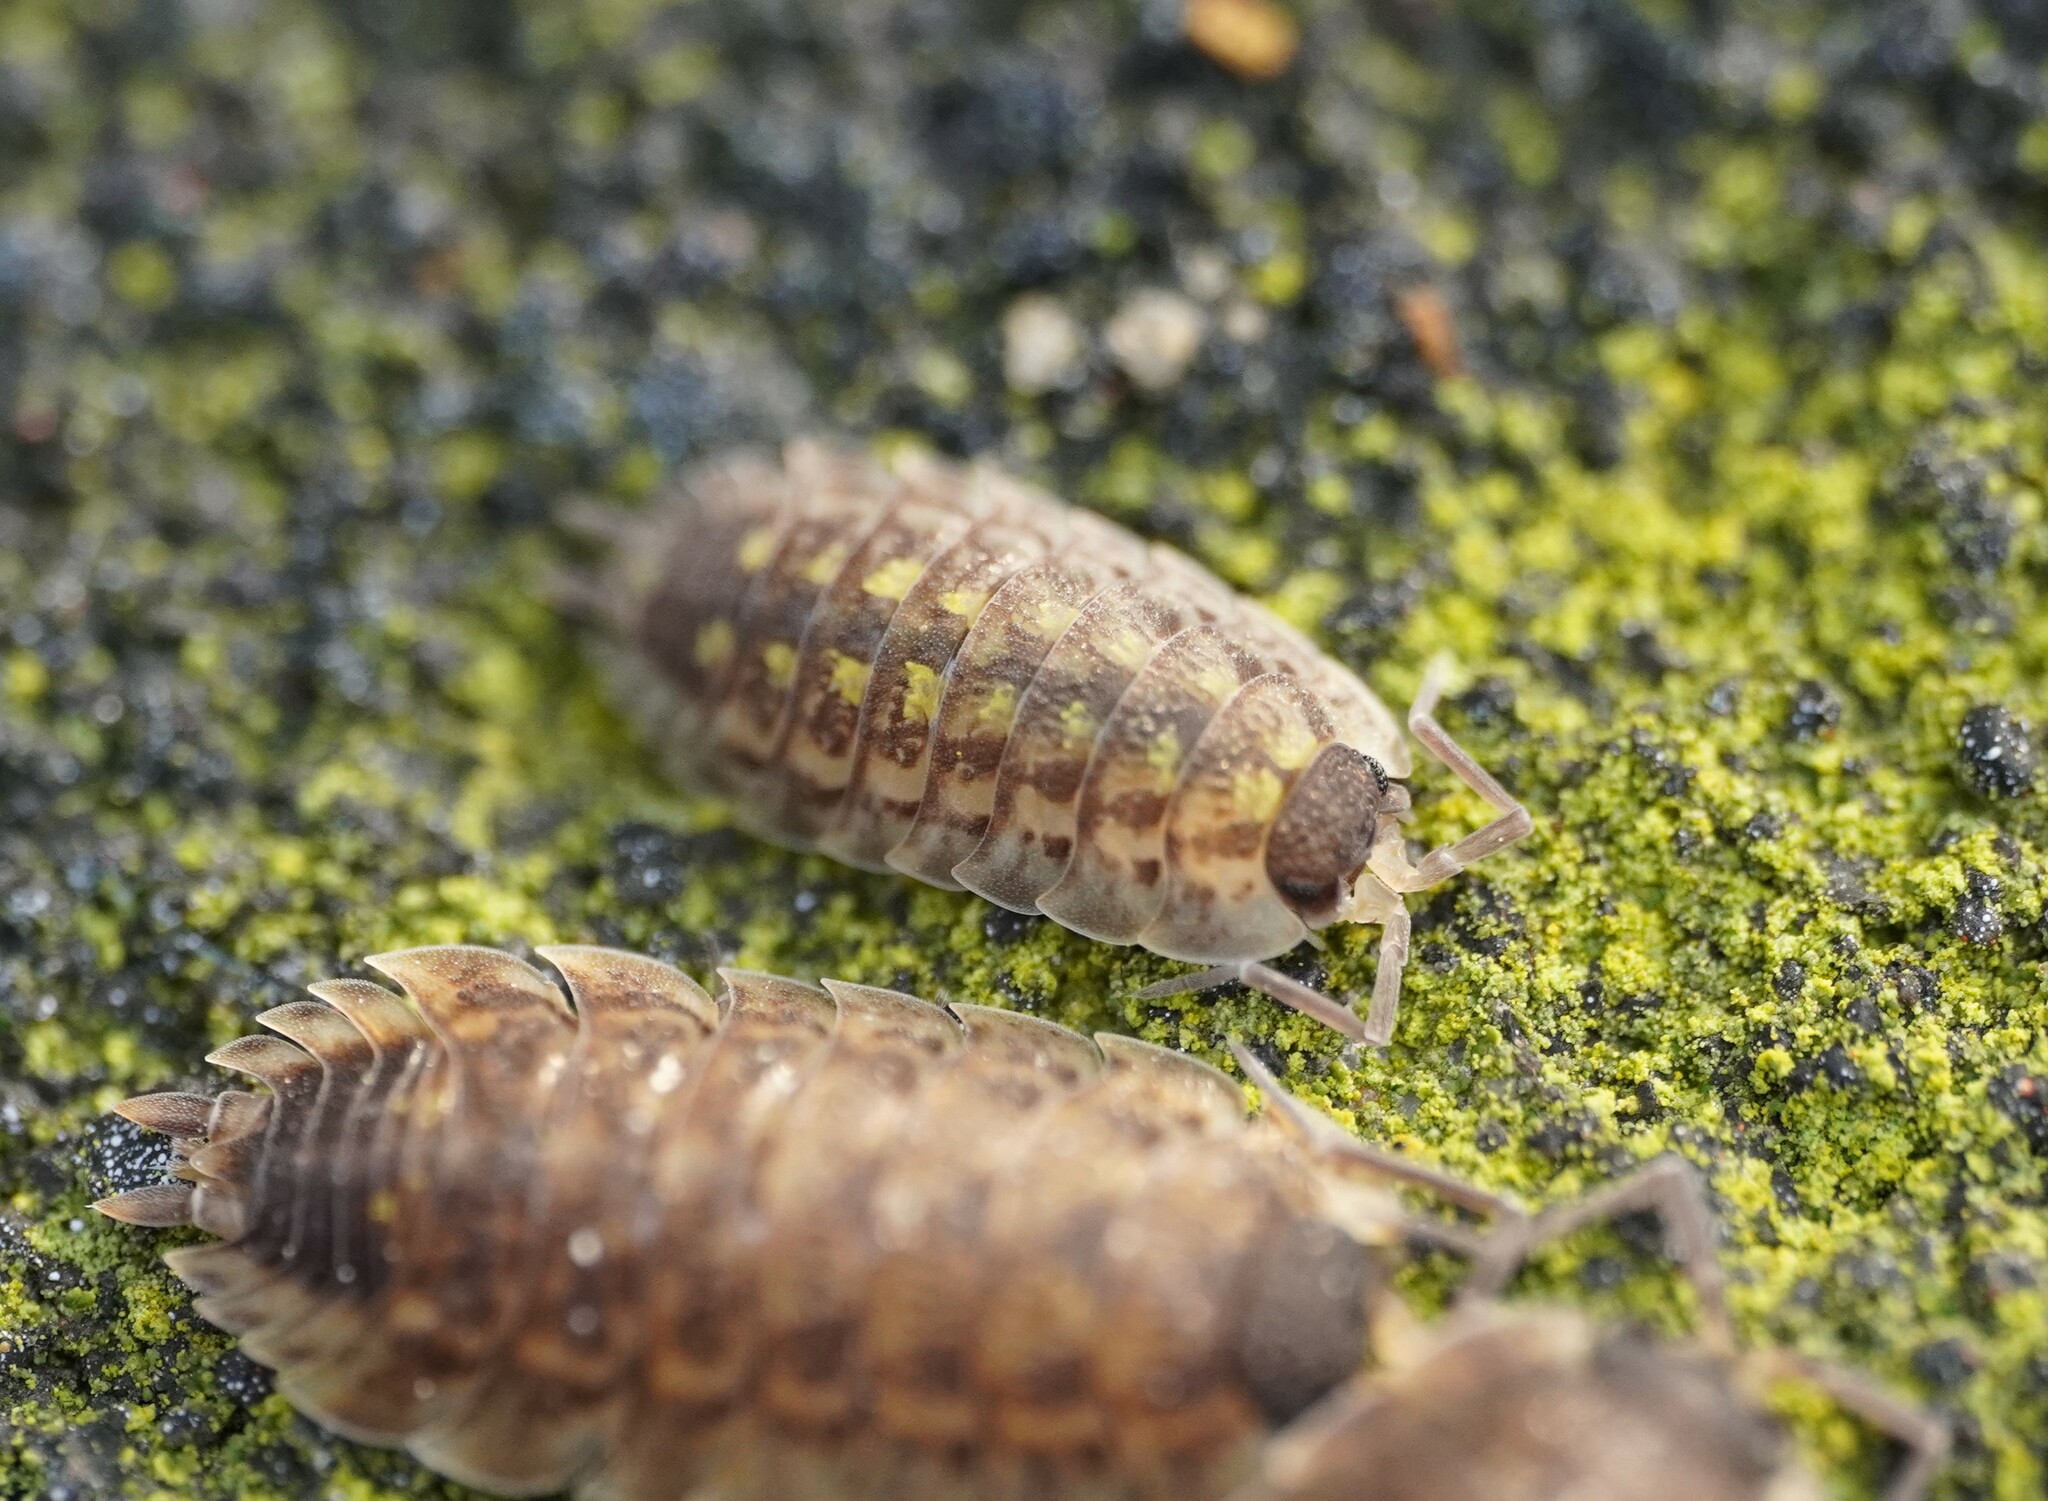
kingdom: Animalia
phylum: Arthropoda
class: Malacostraca
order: Isopoda
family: Porcellionidae
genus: Porcellio
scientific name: Porcellio spinicornis
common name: Painted woodlouse
